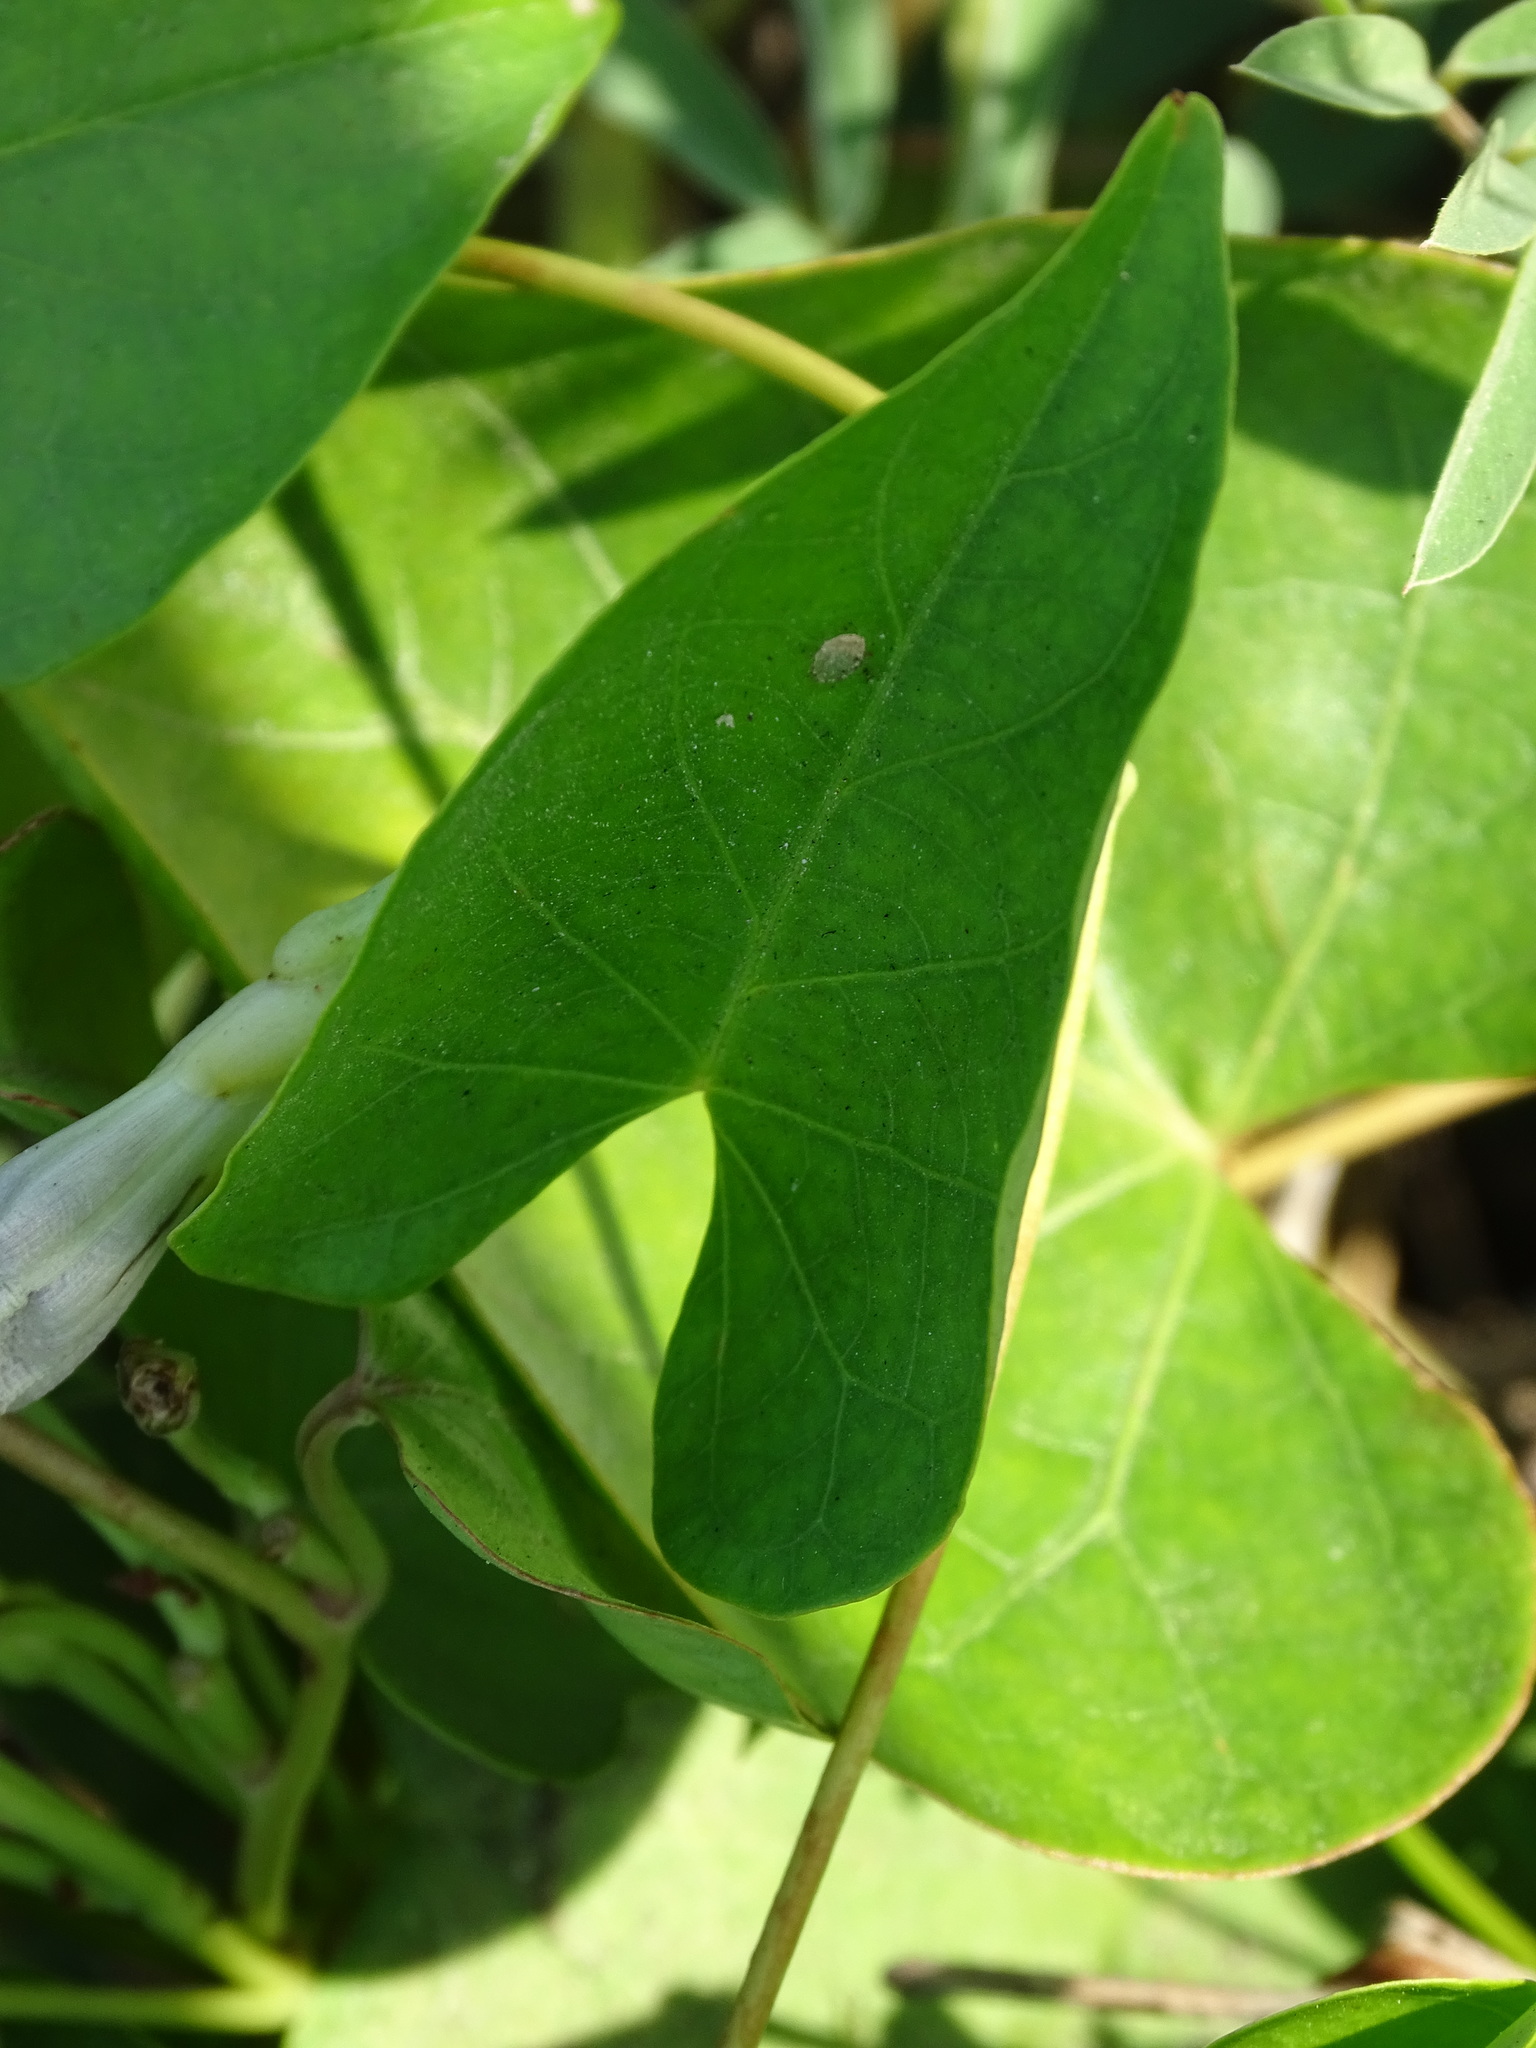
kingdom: Plantae
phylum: Tracheophyta
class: Magnoliopsida
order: Solanales
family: Convolvulaceae
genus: Ipomoea
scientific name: Ipomoea anisomeres
